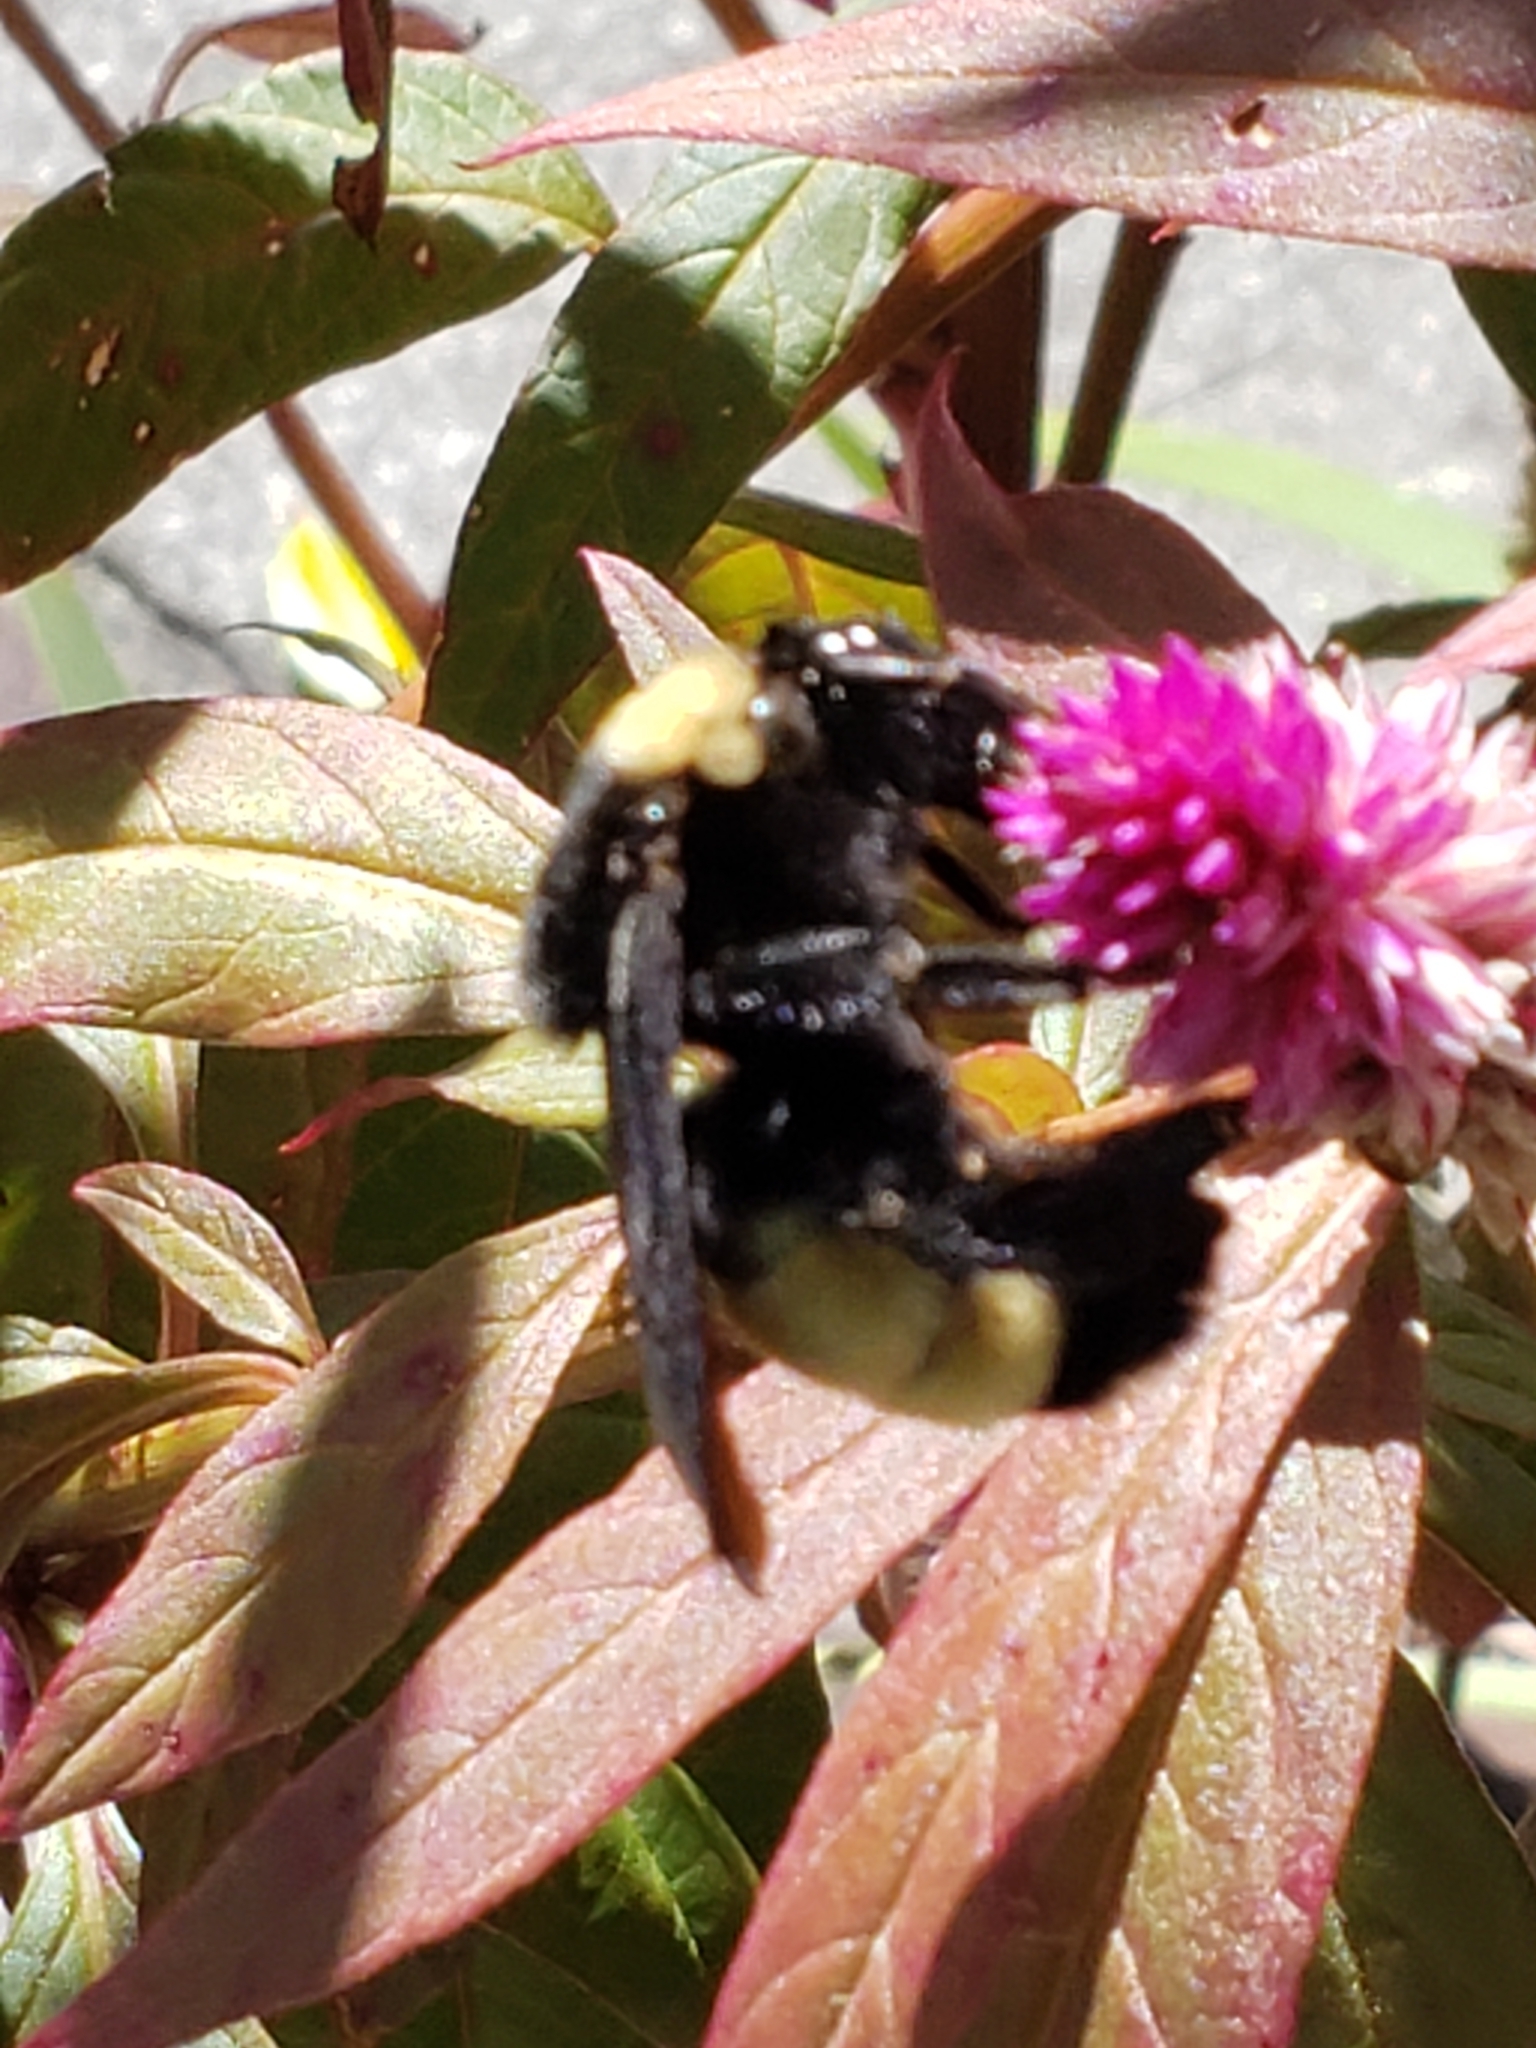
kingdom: Animalia
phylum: Arthropoda
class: Insecta
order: Hymenoptera
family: Apidae
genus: Bombus
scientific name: Bombus pensylvanicus
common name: Bumble bee
